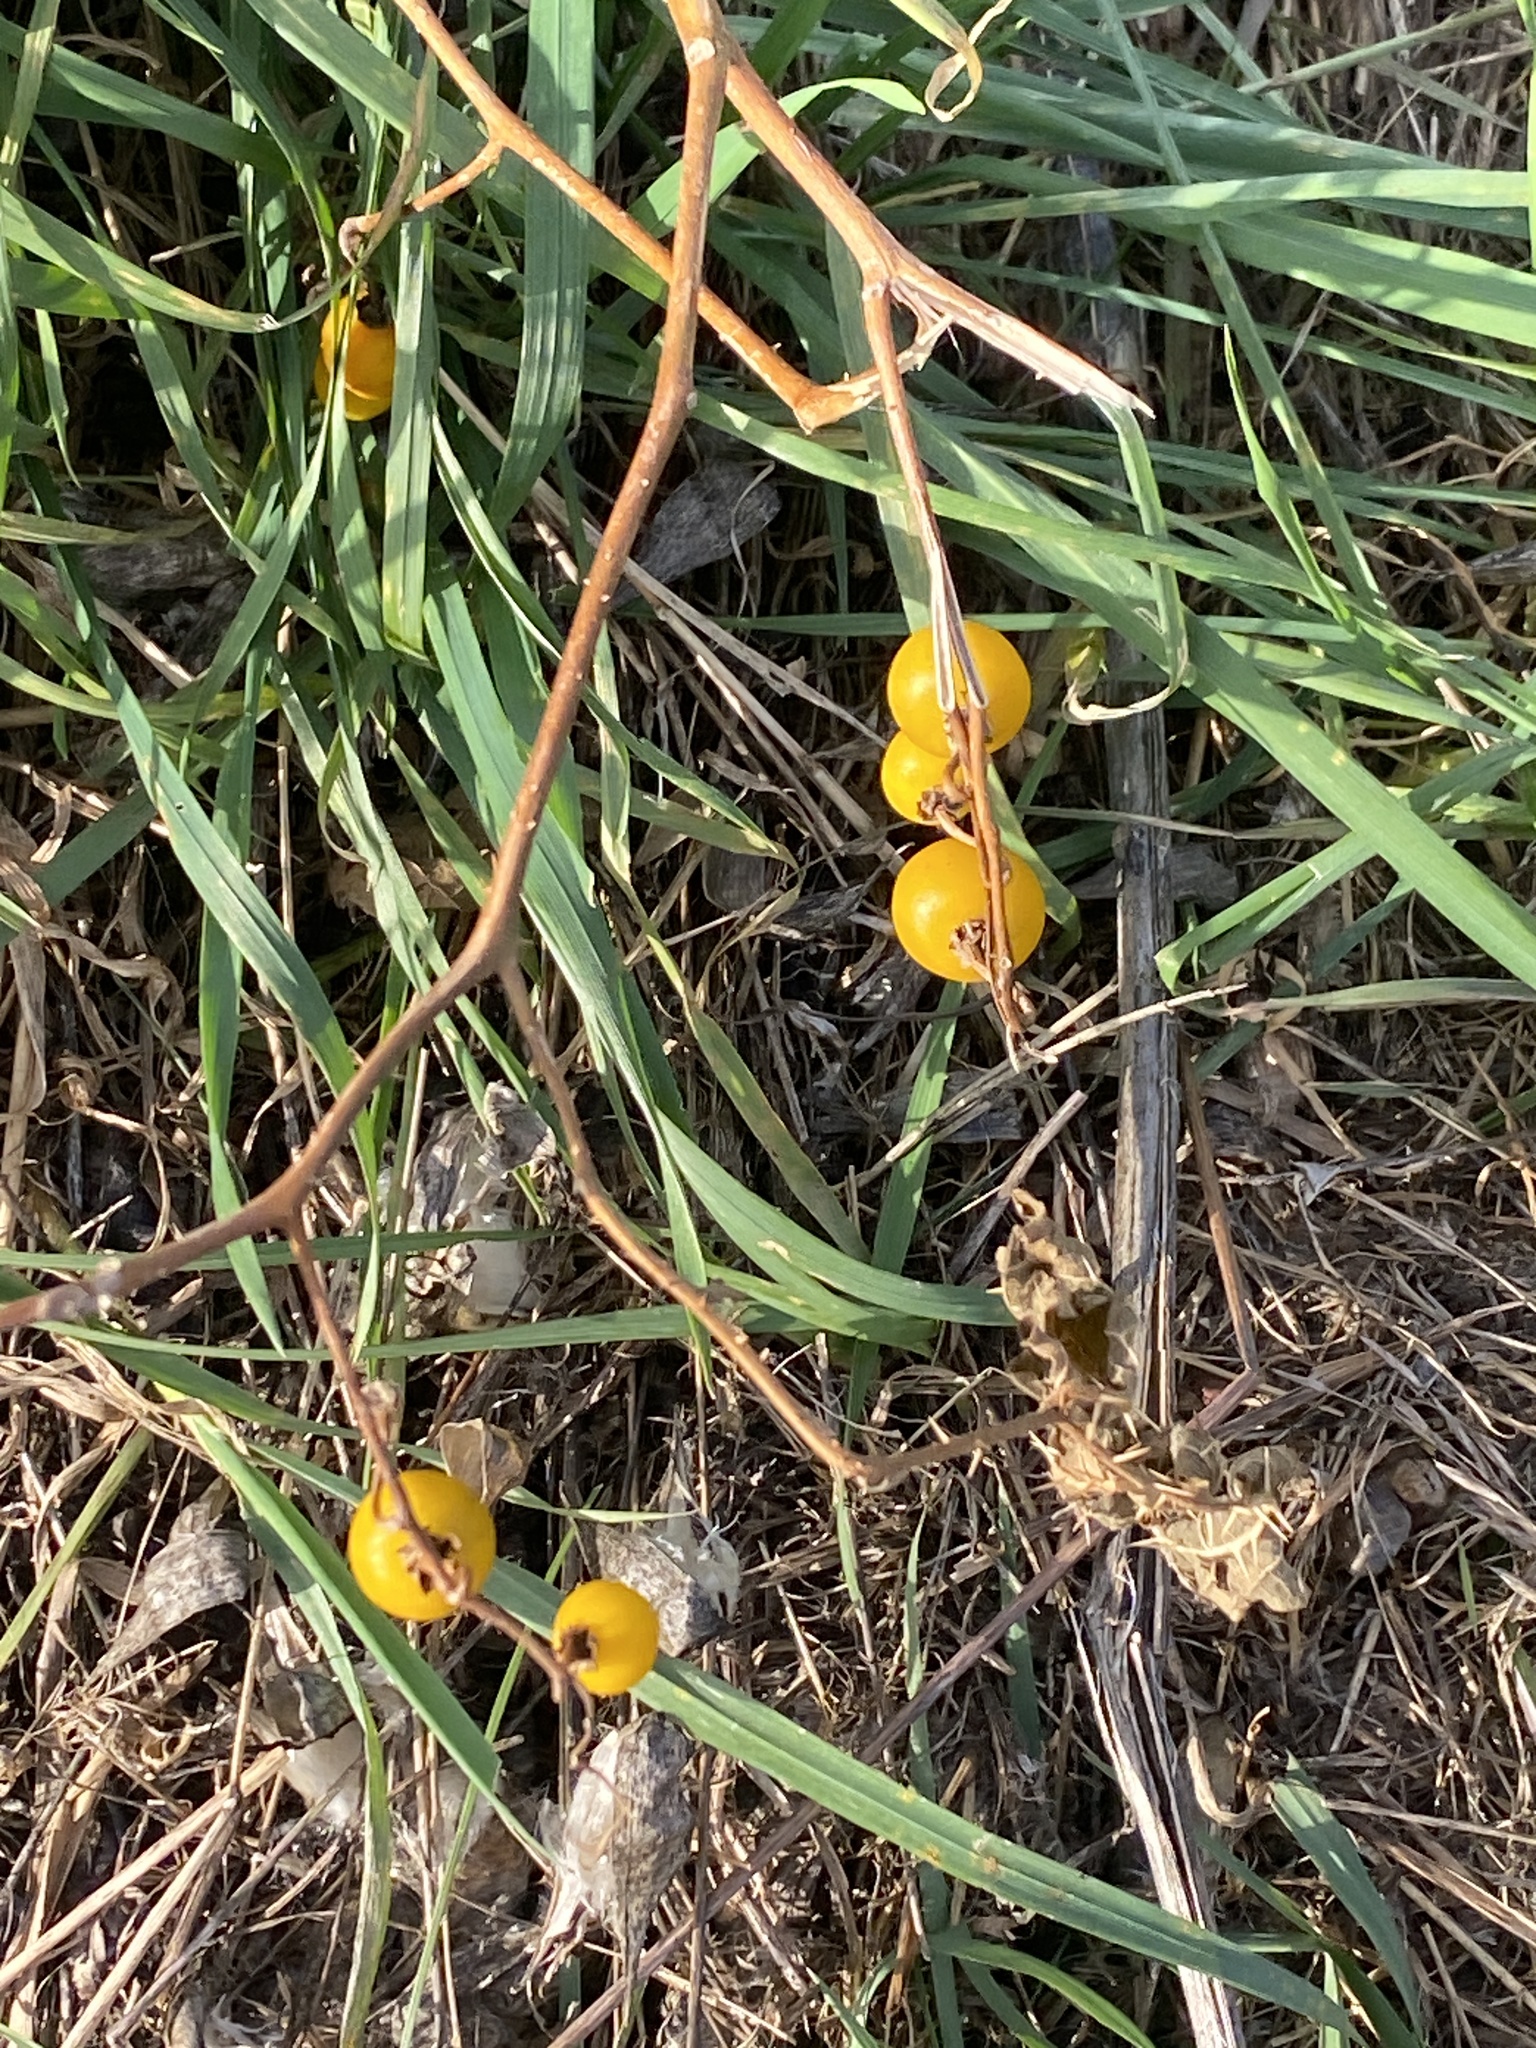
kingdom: Plantae
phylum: Tracheophyta
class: Magnoliopsida
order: Solanales
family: Solanaceae
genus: Solanum
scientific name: Solanum carolinense
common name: Horse-nettle
